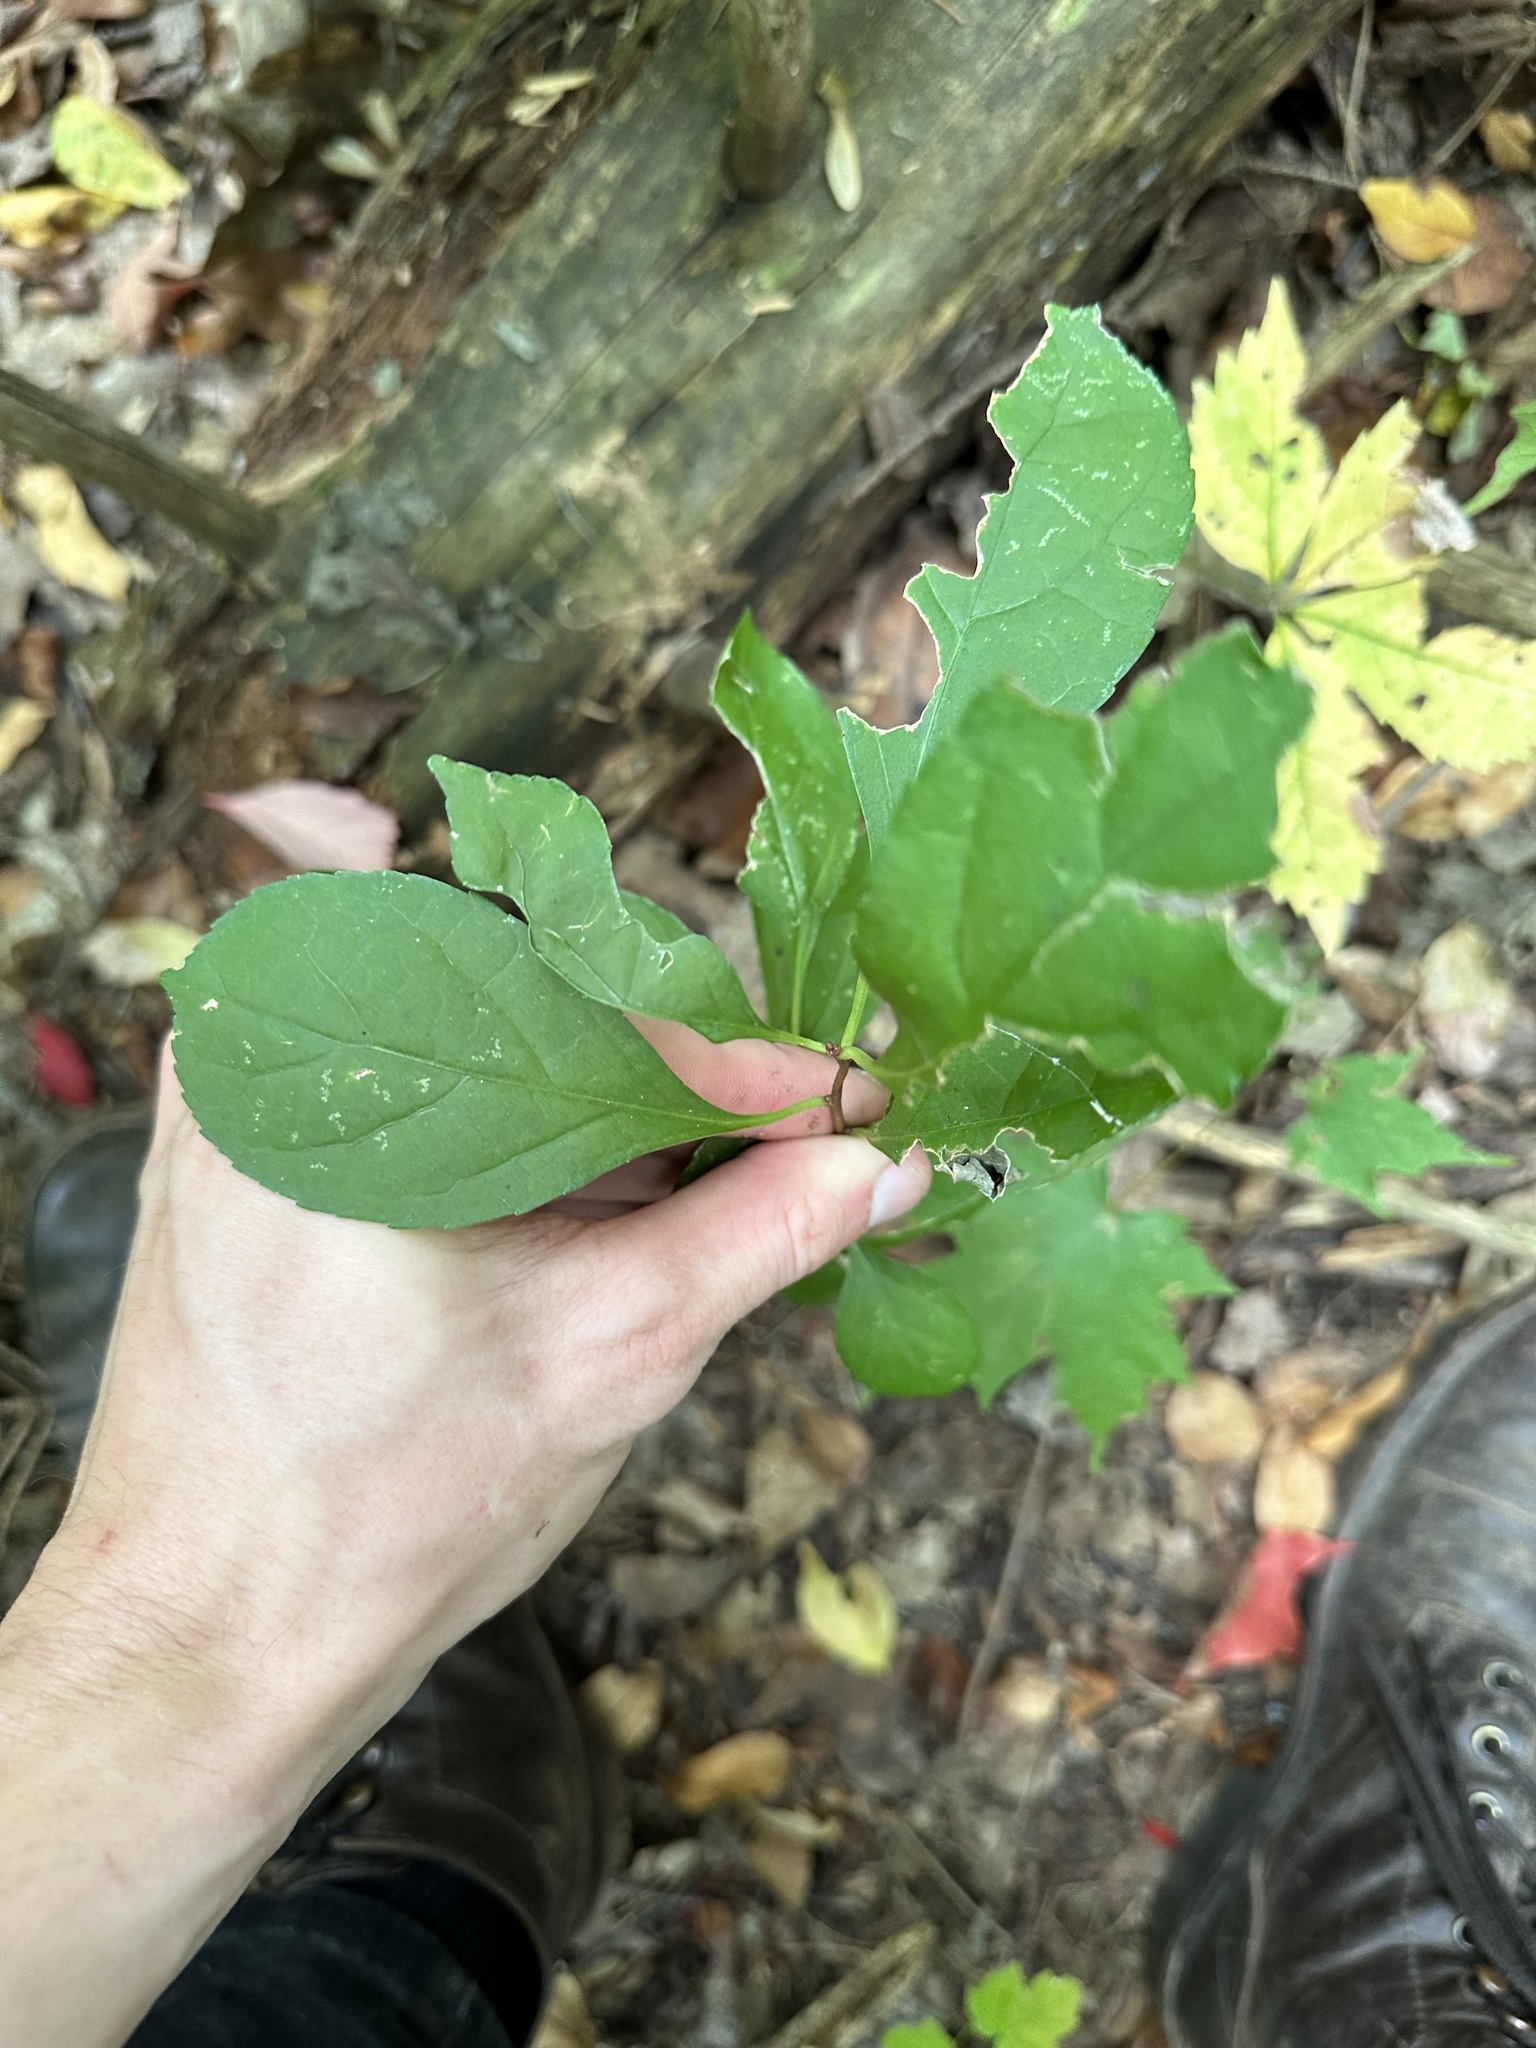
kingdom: Plantae
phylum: Tracheophyta
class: Magnoliopsida
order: Celastrales
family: Celastraceae
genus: Celastrus
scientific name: Celastrus orbiculatus
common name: Oriental bittersweet
